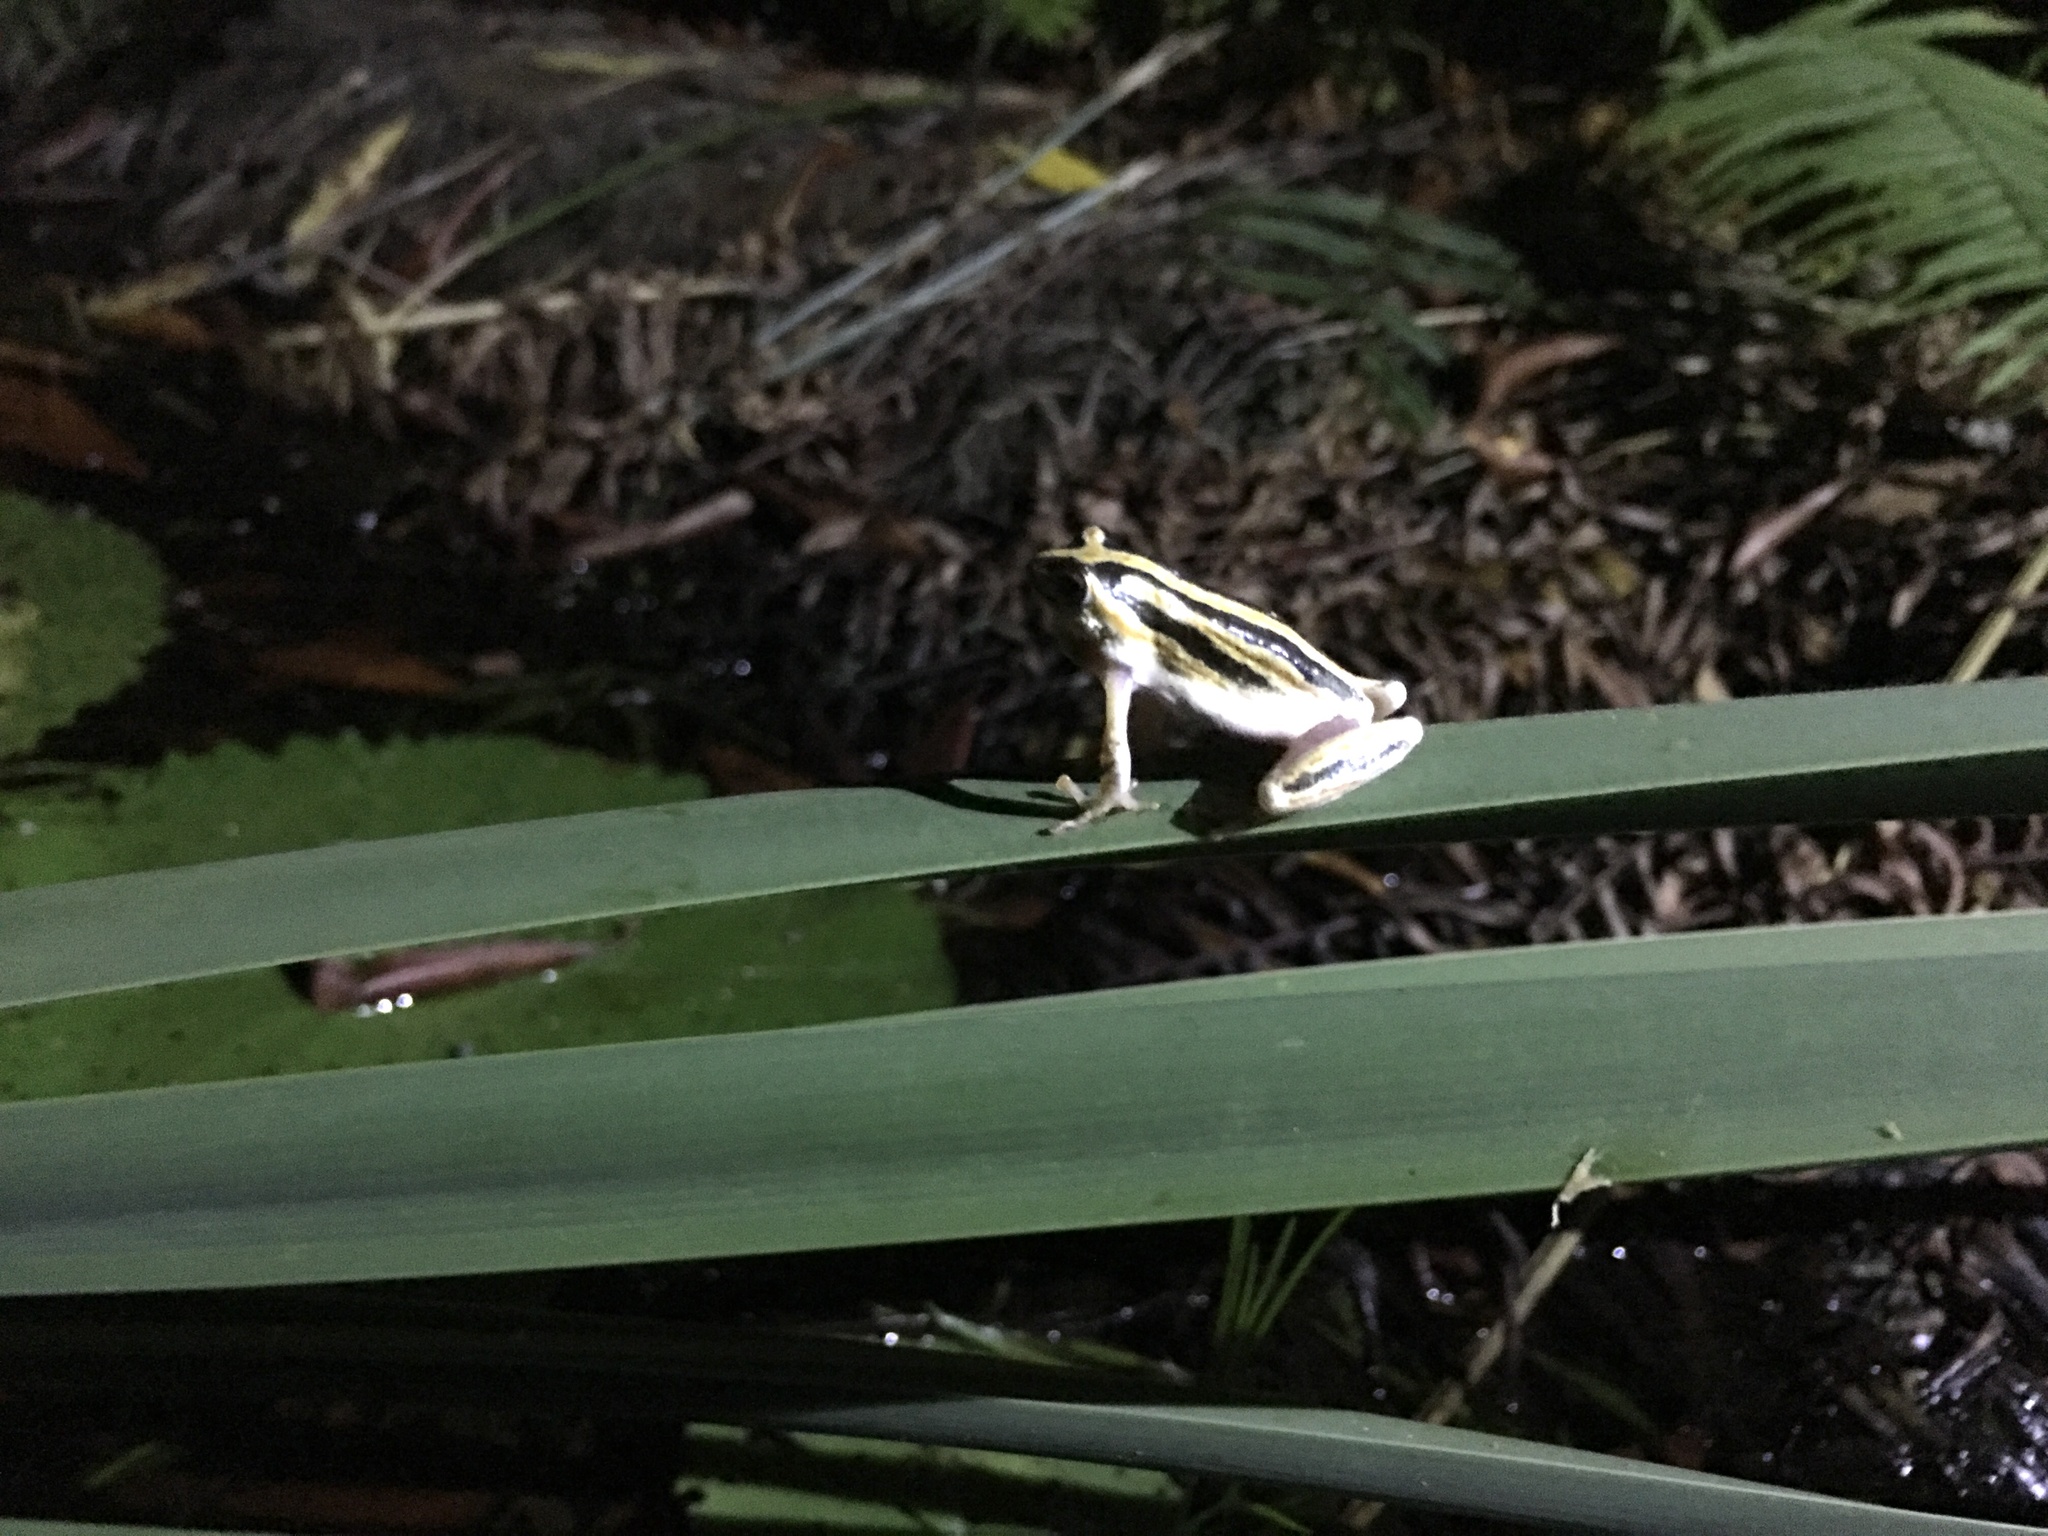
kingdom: Animalia
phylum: Chordata
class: Amphibia
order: Anura
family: Hyperoliidae
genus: Hyperolius
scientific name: Hyperolius marmoratus
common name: Painted reed frog
